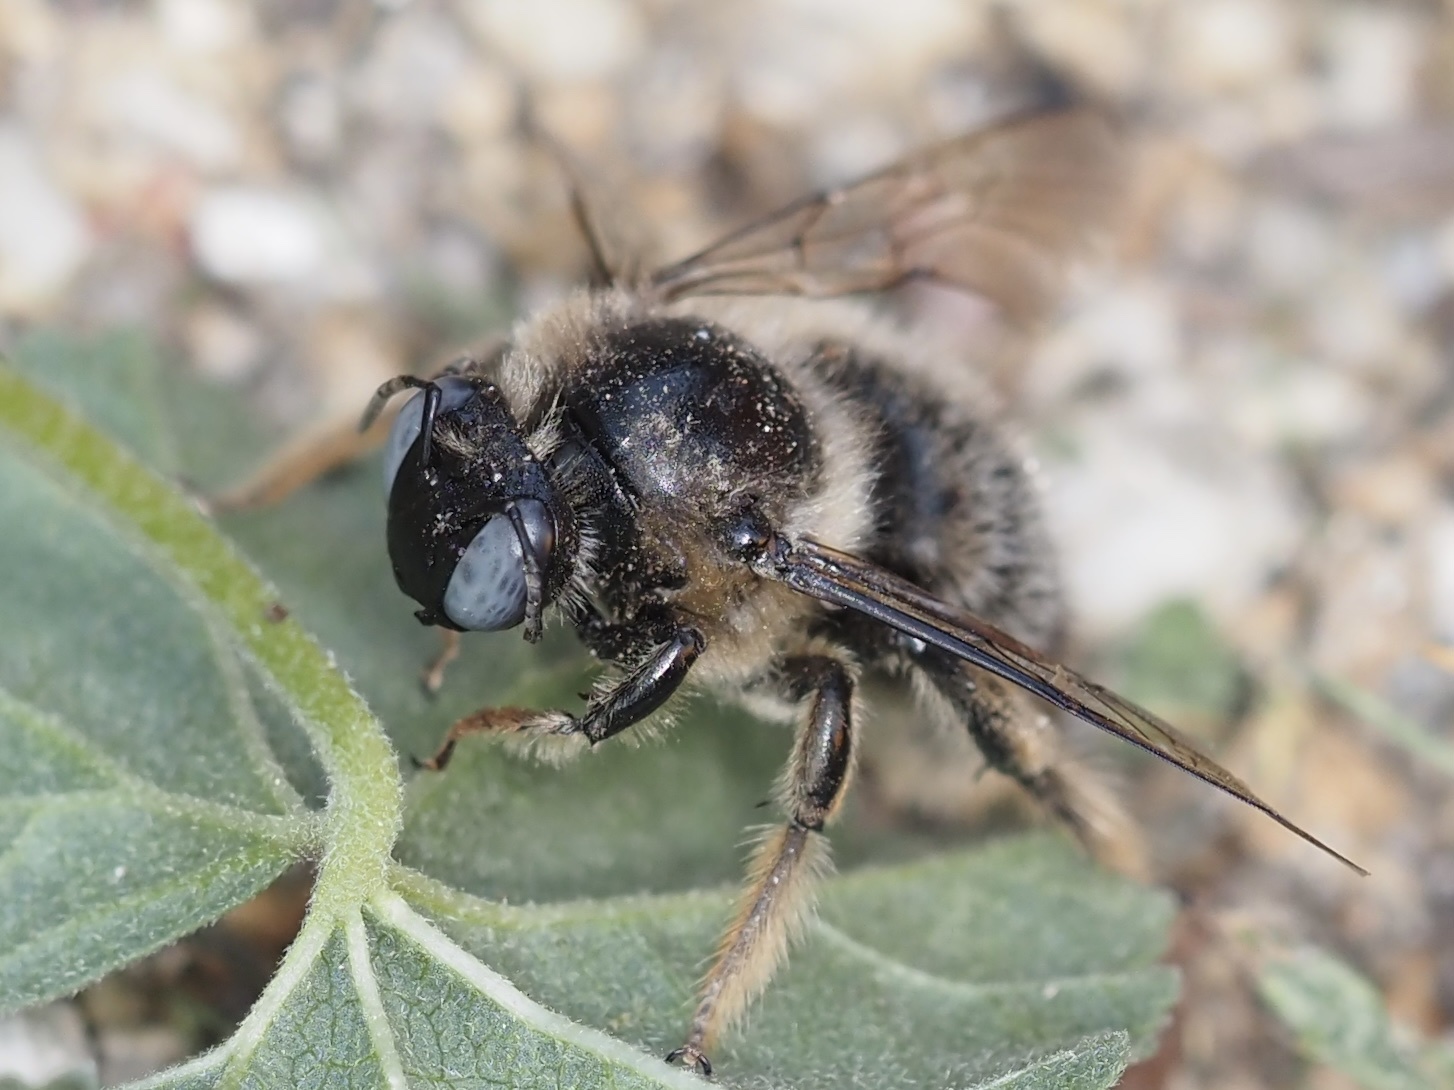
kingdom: Animalia
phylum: Arthropoda
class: Insecta
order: Hymenoptera
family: Apidae
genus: Xylocopa
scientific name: Xylocopa cantabrita
